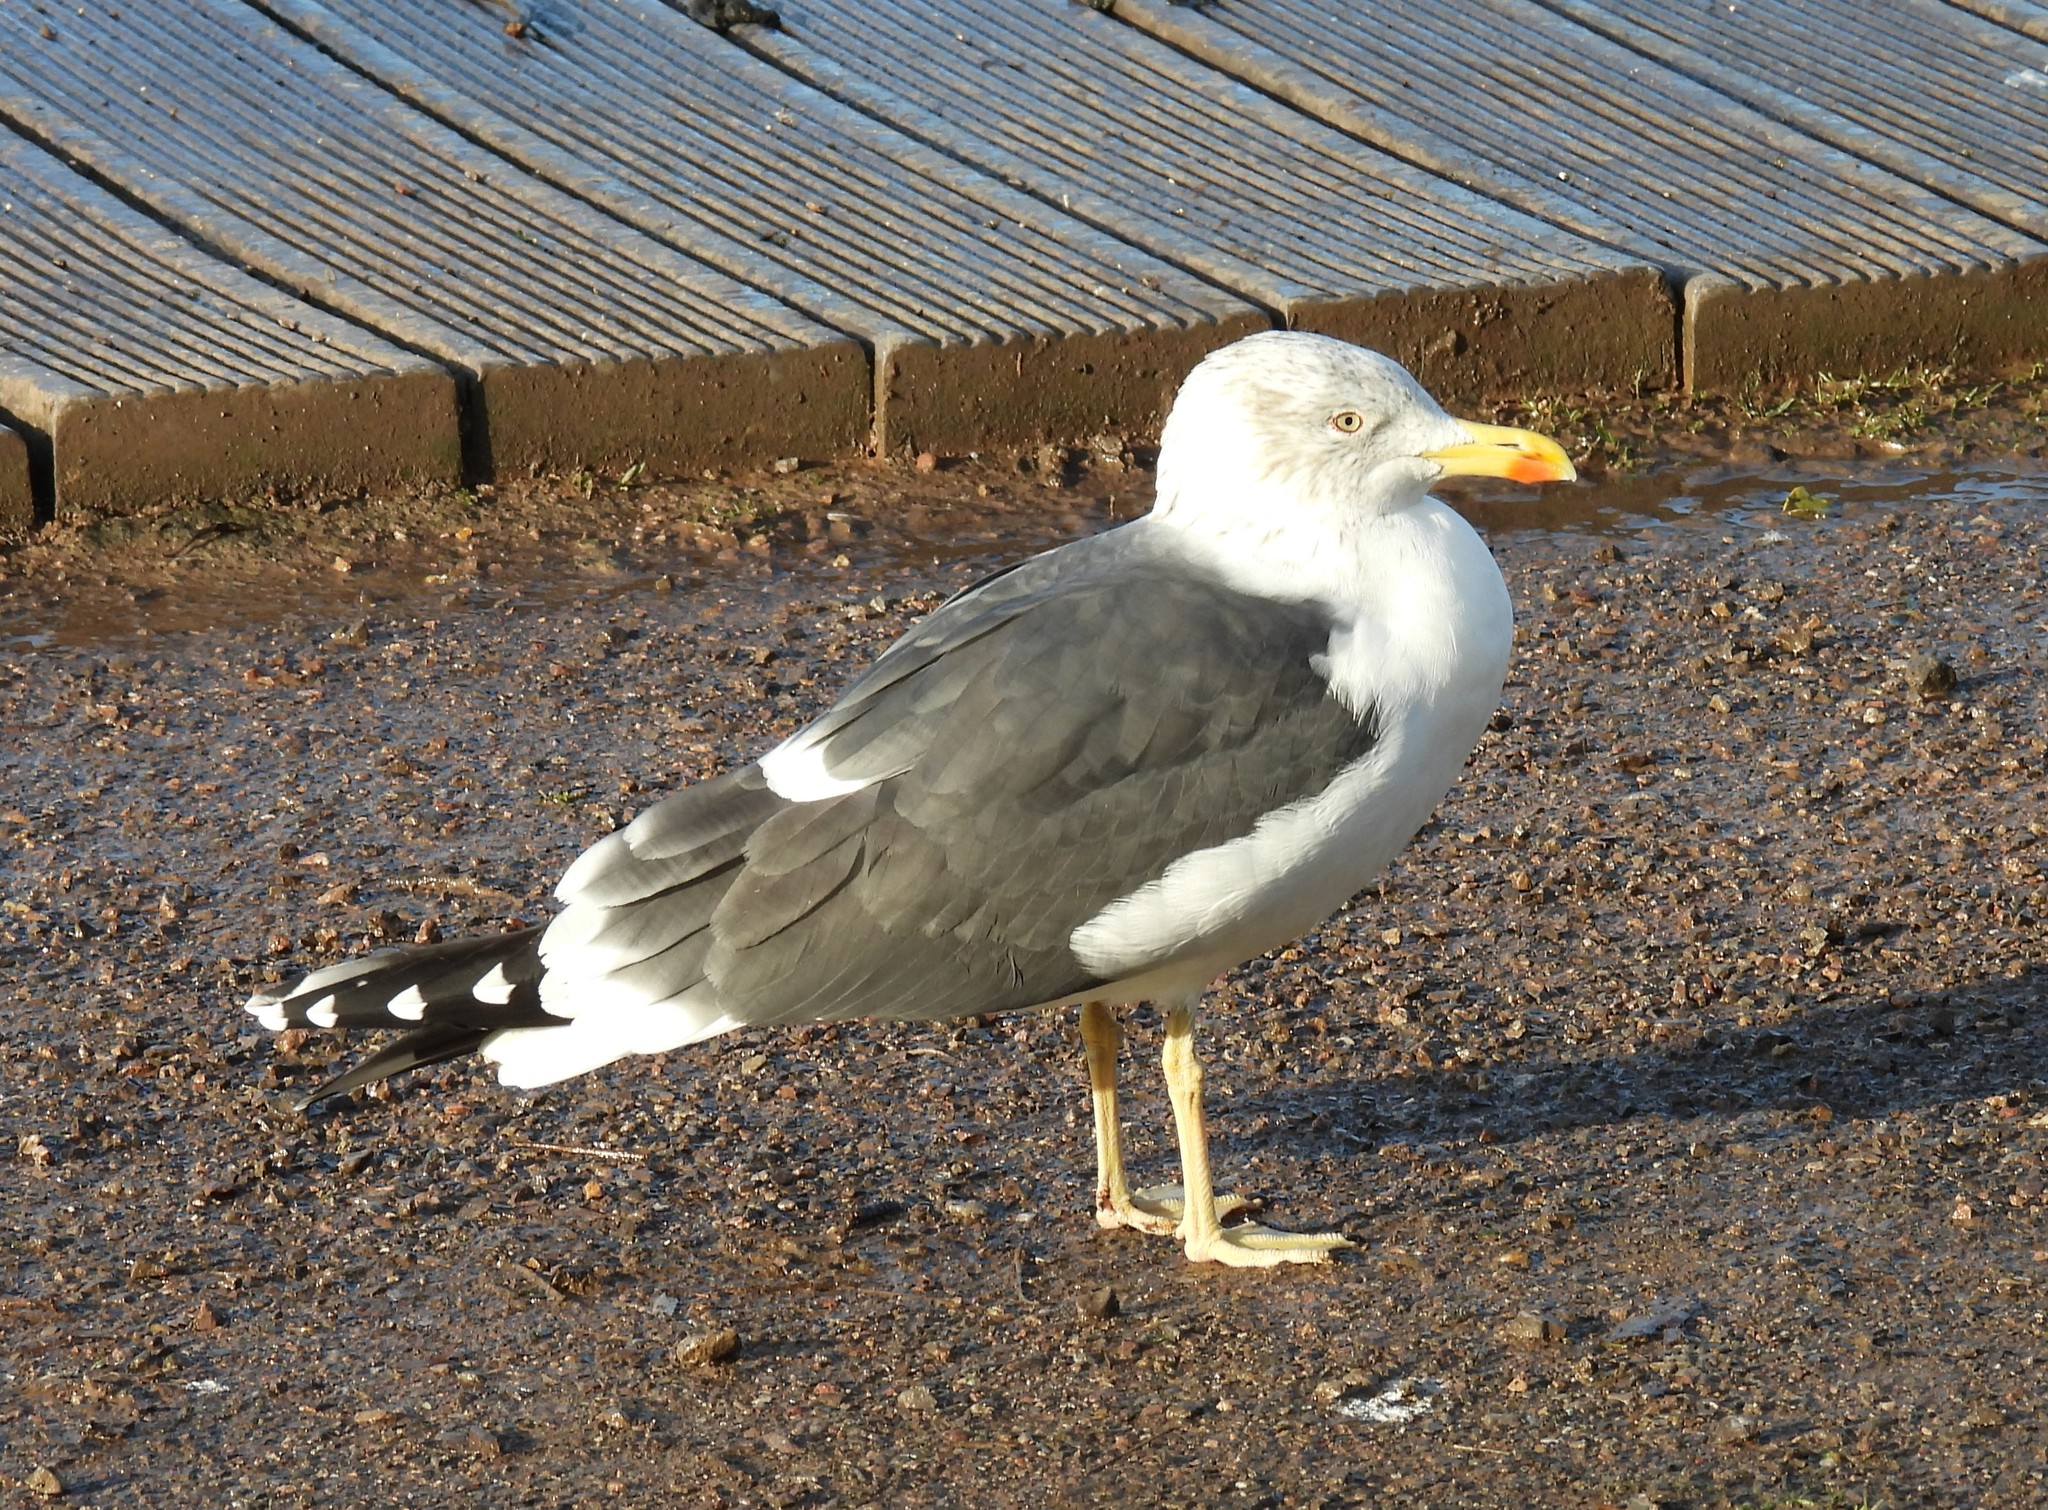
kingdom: Animalia
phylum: Chordata
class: Aves
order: Charadriiformes
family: Laridae
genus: Larus
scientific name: Larus fuscus
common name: Lesser black-backed gull
